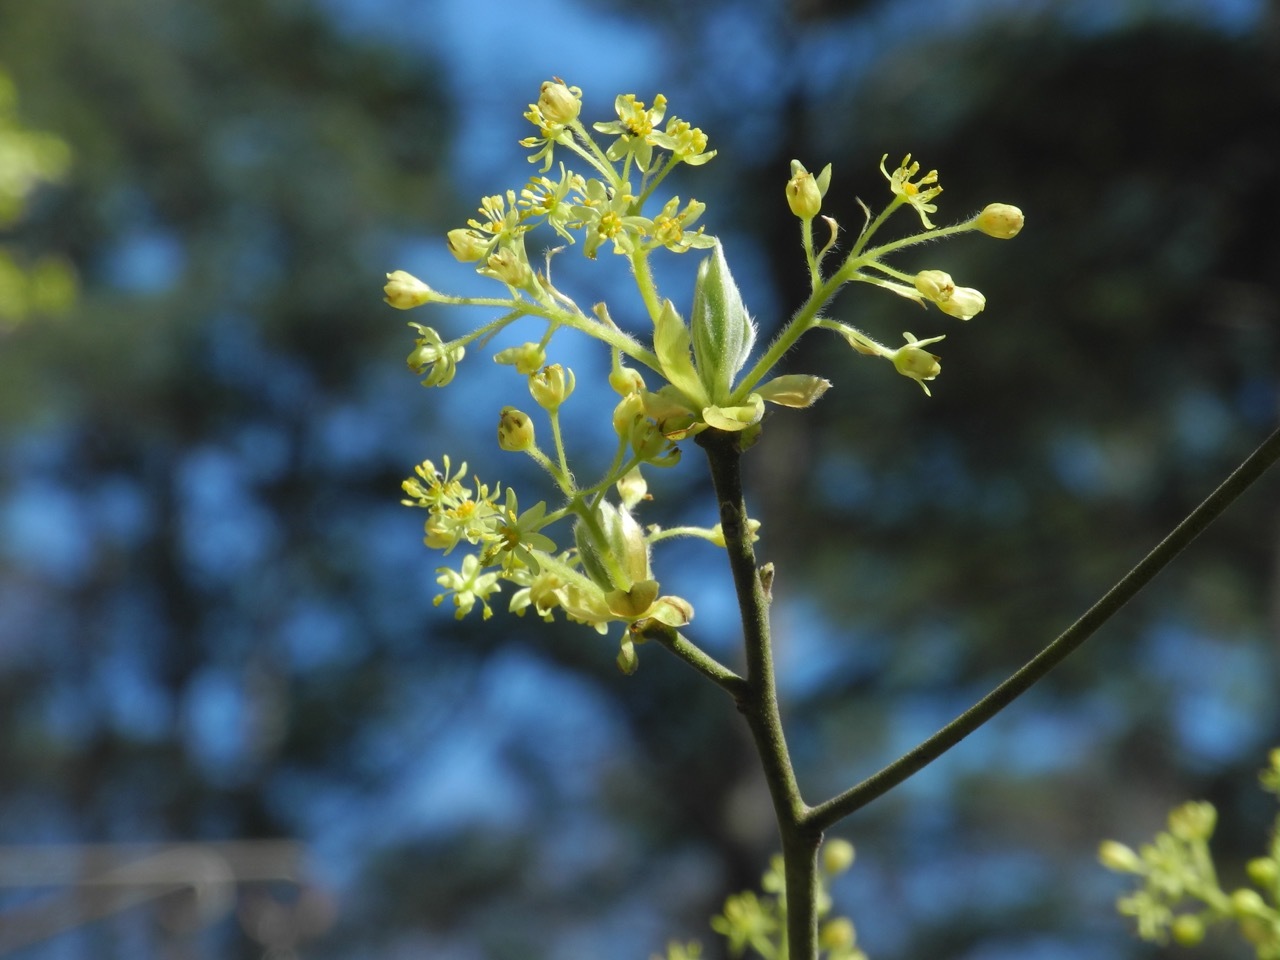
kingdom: Plantae
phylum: Tracheophyta
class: Magnoliopsida
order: Laurales
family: Lauraceae
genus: Sassafras
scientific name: Sassafras albidum
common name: Sassafras
